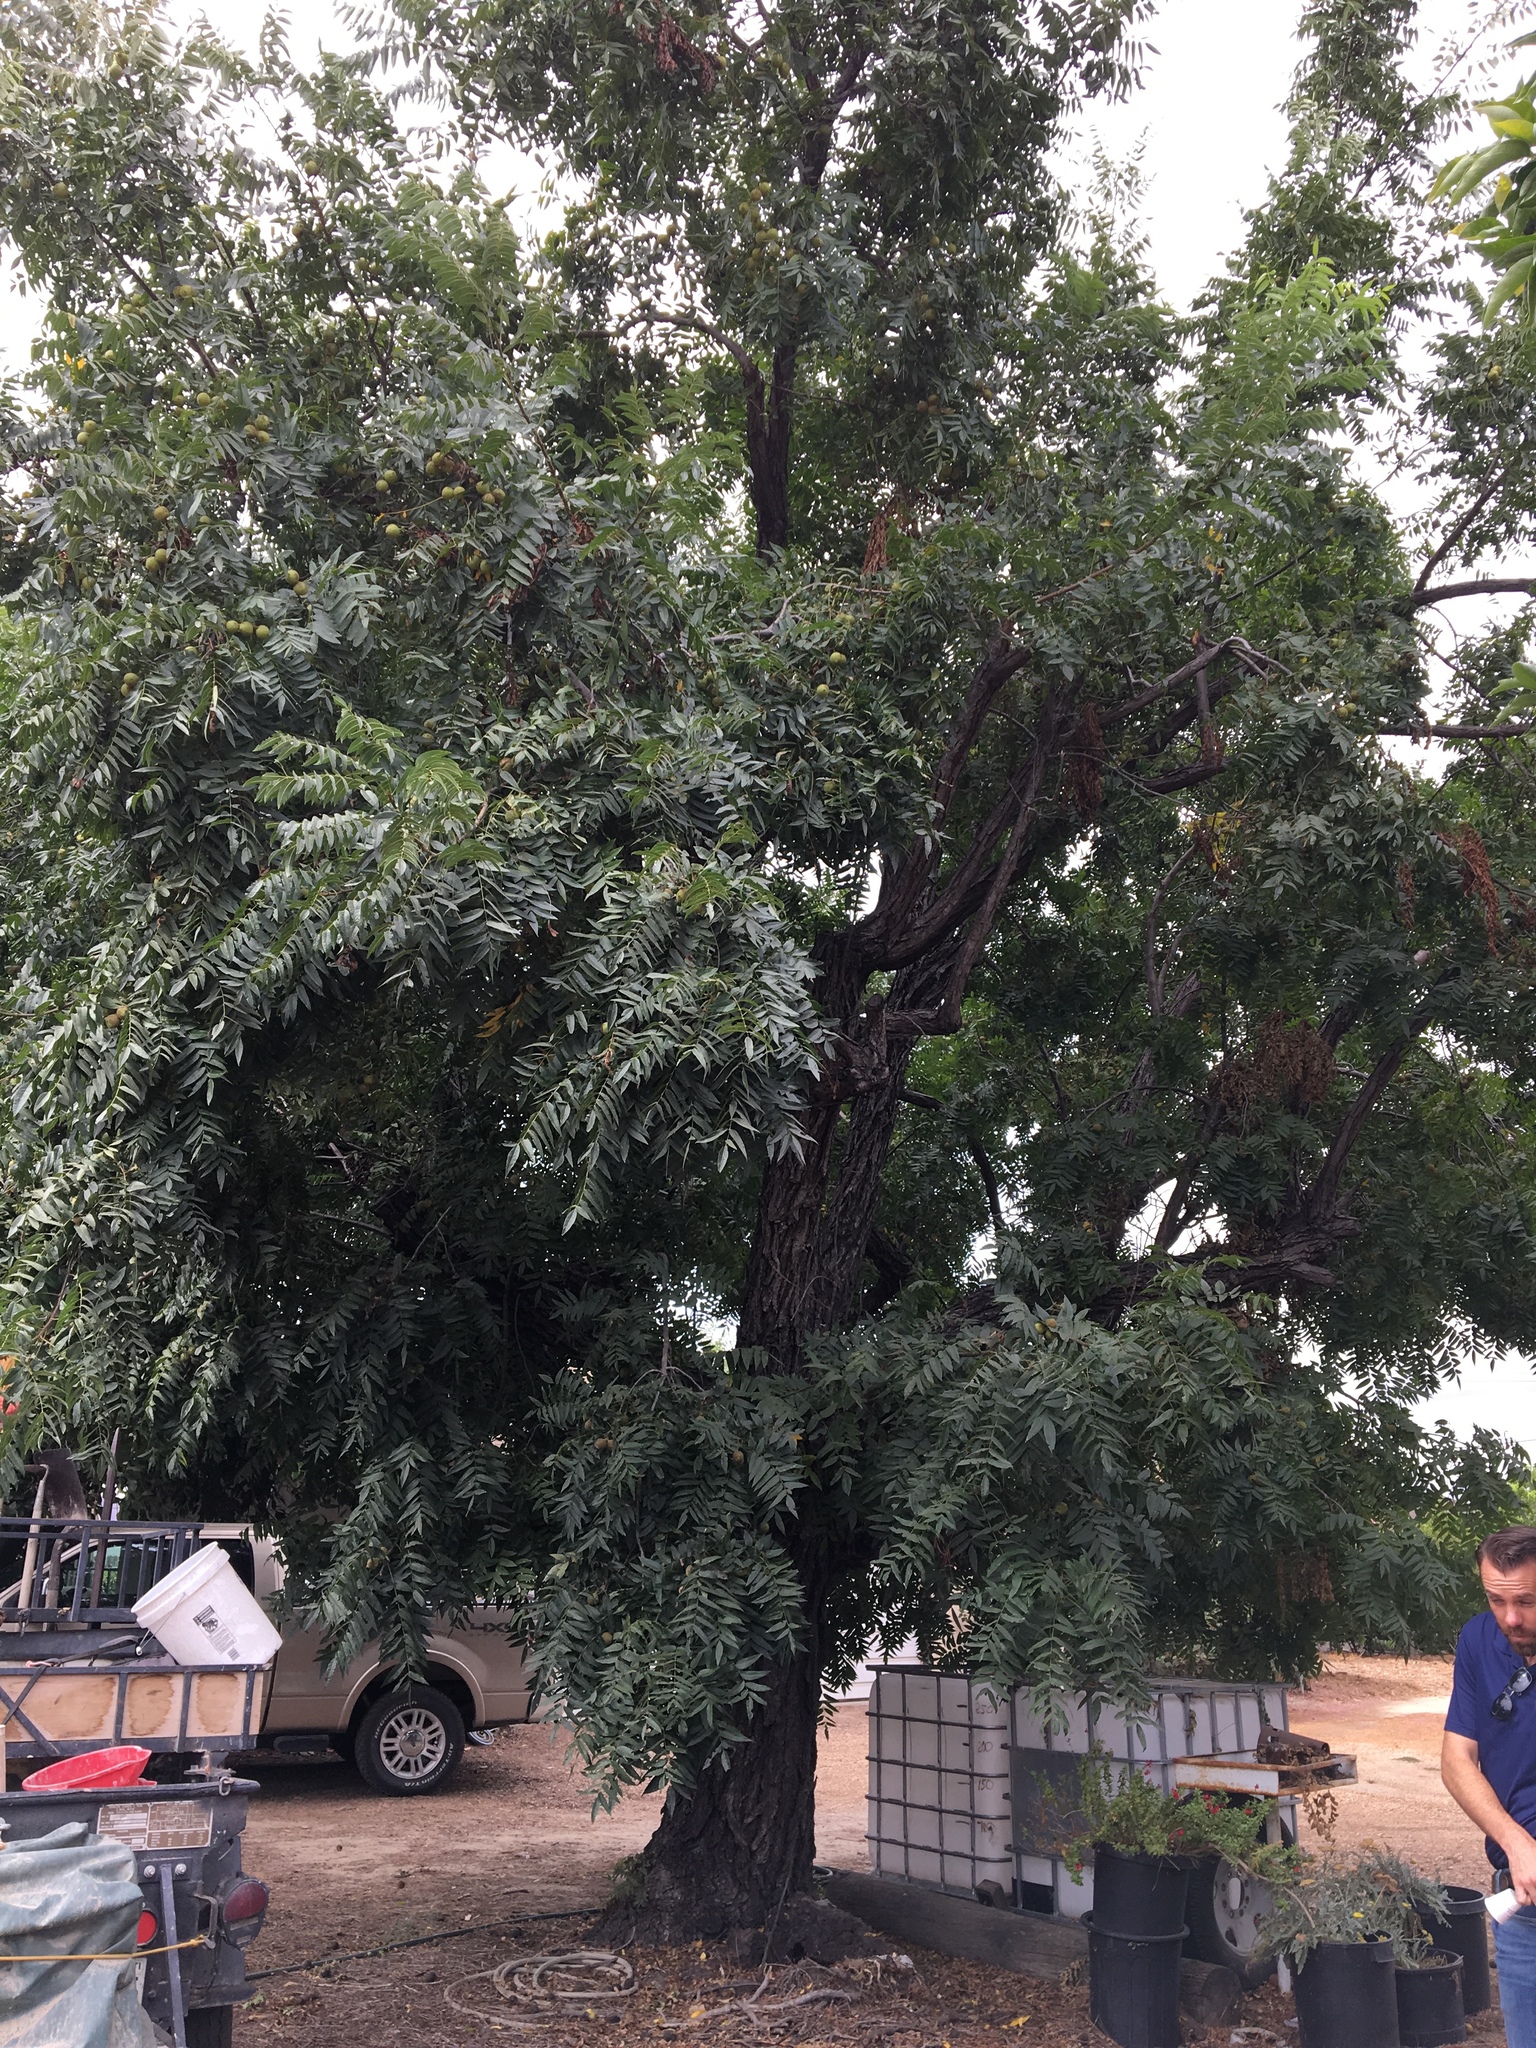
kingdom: Plantae
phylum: Tracheophyta
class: Magnoliopsida
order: Fagales
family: Juglandaceae
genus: Juglans
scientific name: Juglans californica
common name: Southern california black walnut
